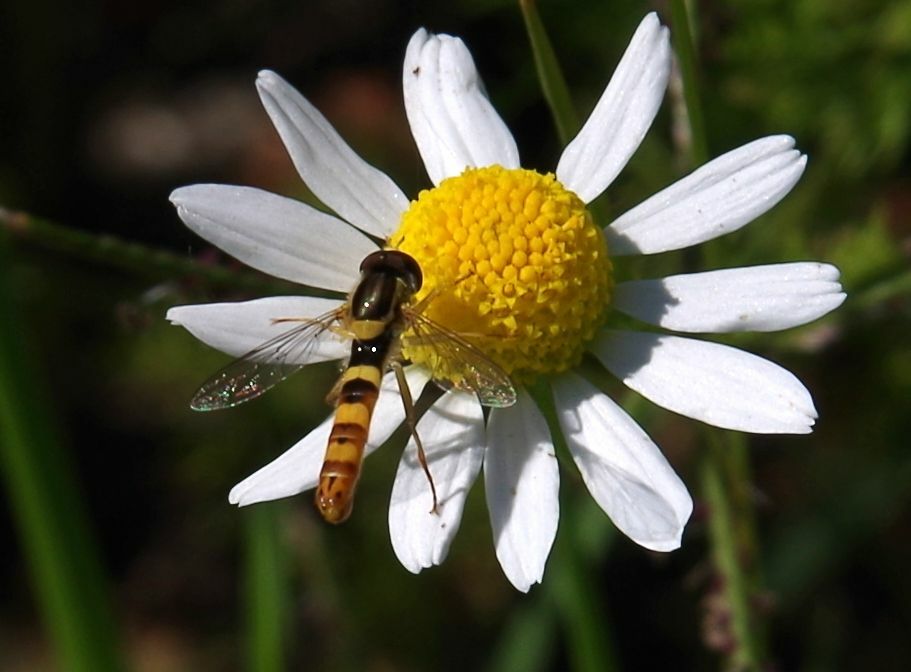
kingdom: Animalia
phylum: Arthropoda
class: Insecta
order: Diptera
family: Syrphidae
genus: Sphaerophoria
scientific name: Sphaerophoria scripta
